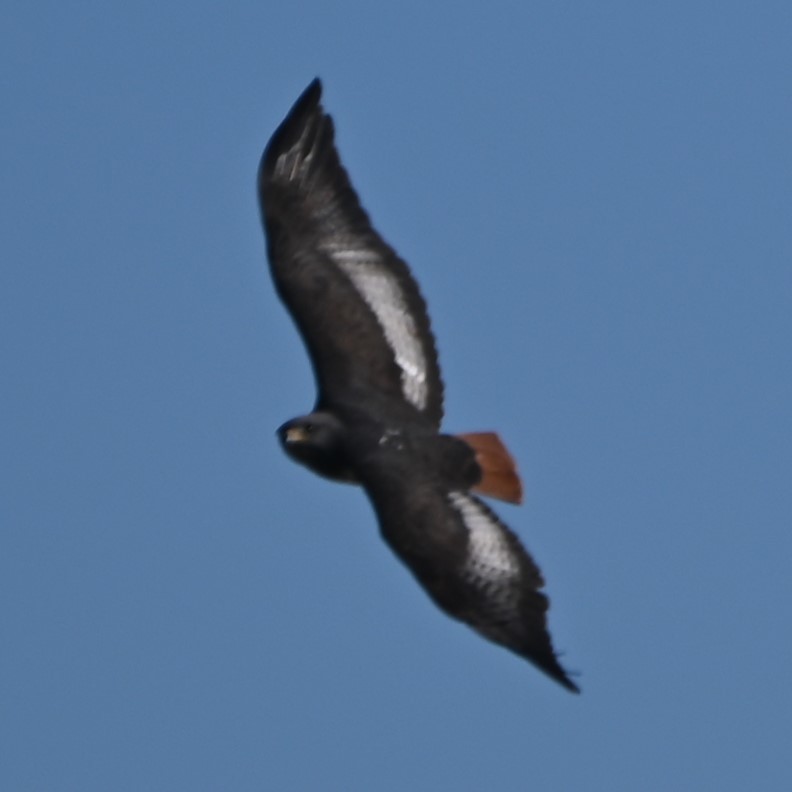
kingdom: Animalia
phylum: Chordata
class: Aves
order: Accipitriformes
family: Accipitridae
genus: Buteo
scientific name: Buteo rufofuscus
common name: Jackal buzzard
